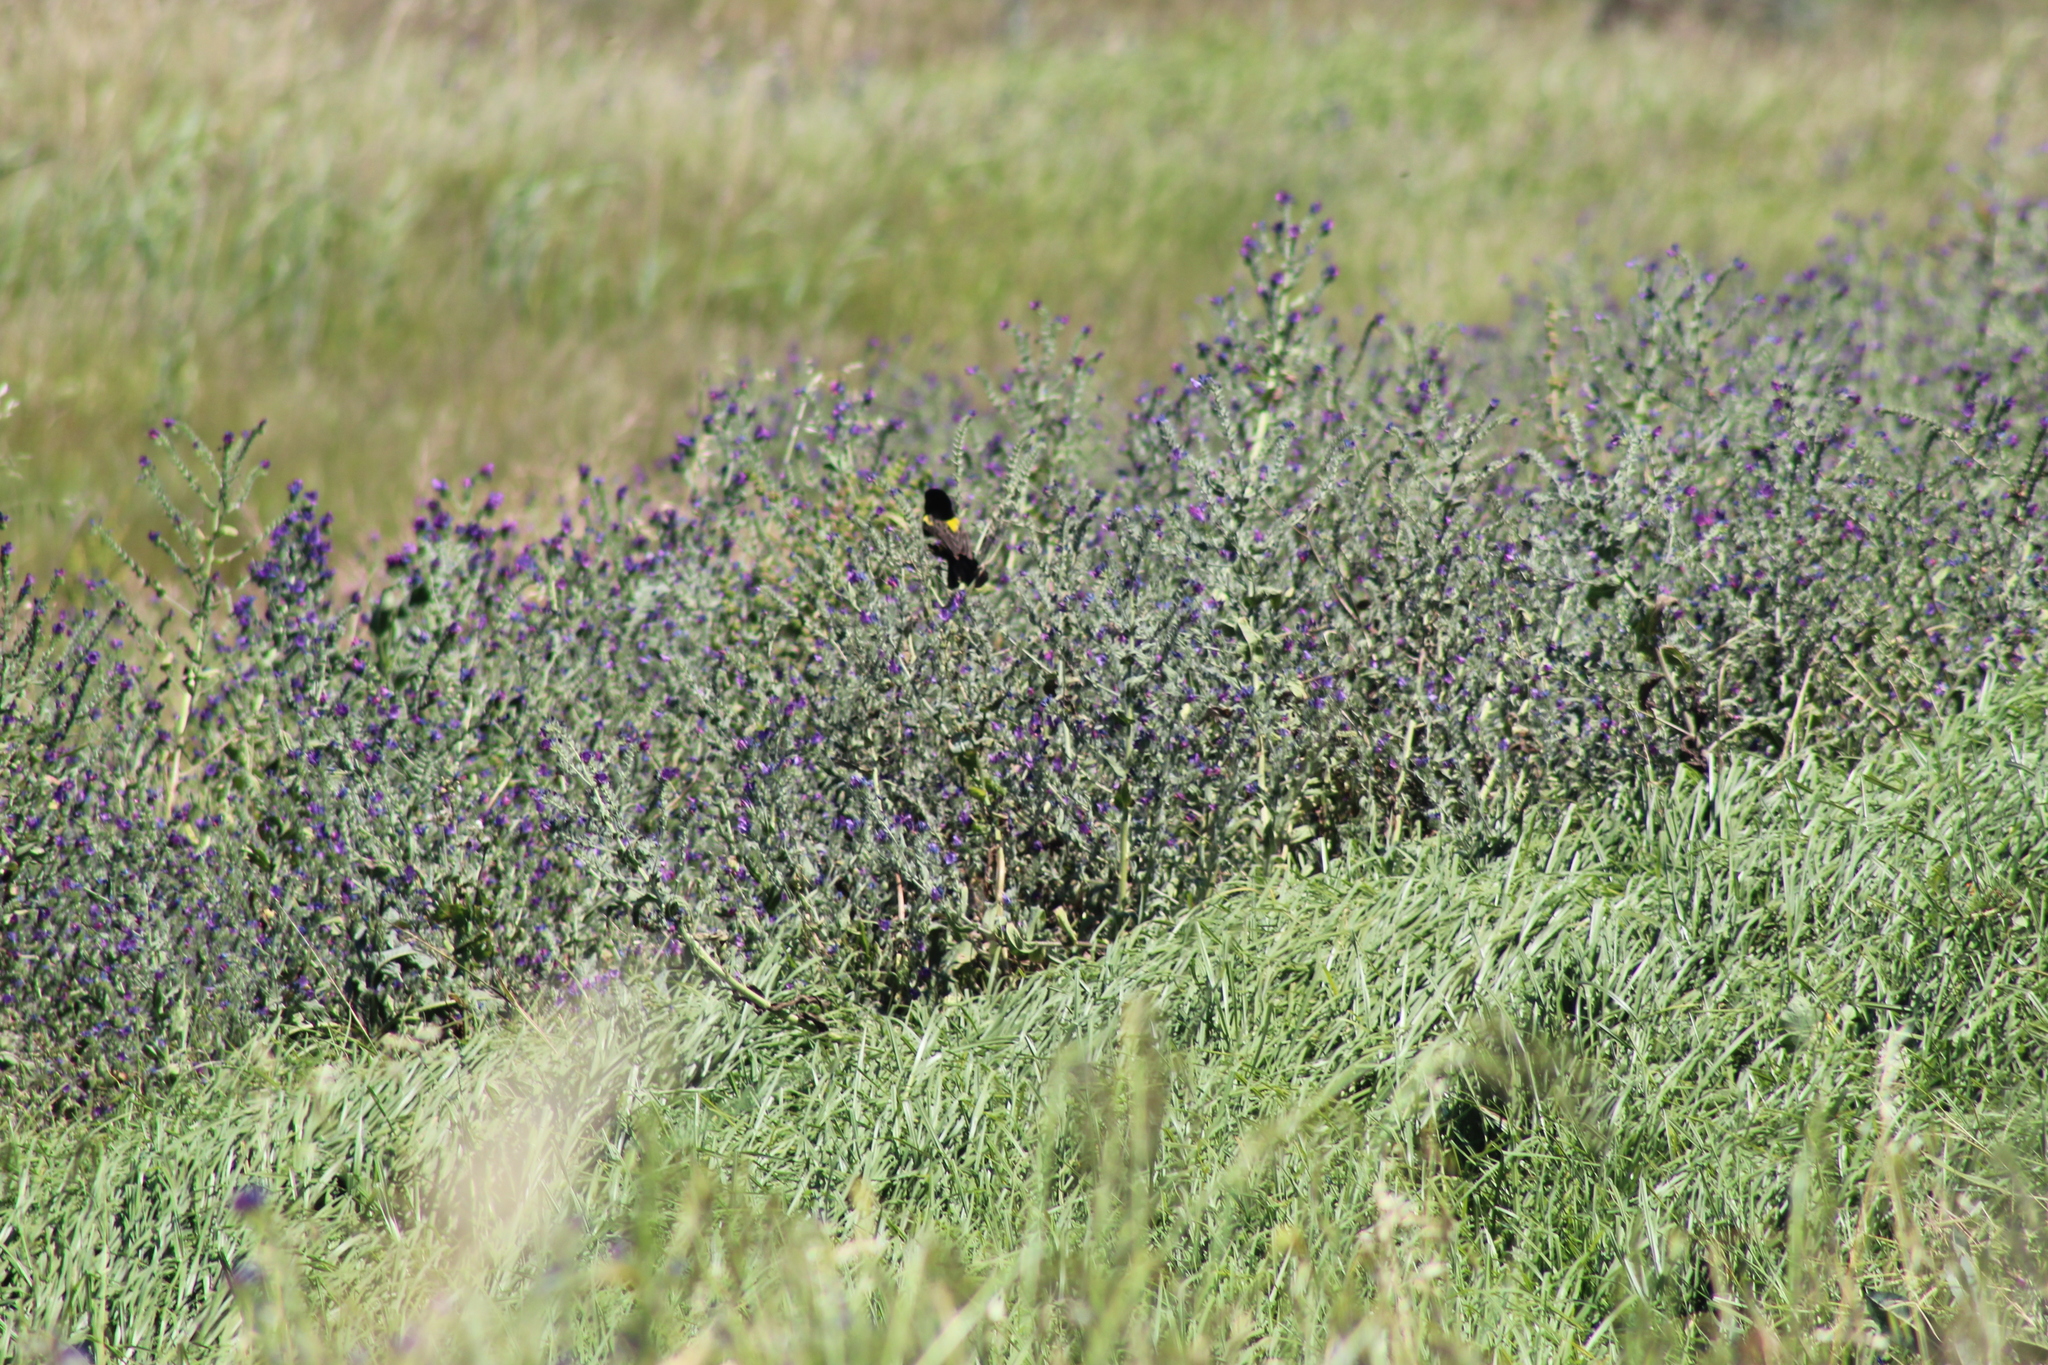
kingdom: Animalia
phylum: Chordata
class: Aves
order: Passeriformes
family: Ploceidae
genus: Euplectes
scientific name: Euplectes capensis
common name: Yellow bishop
